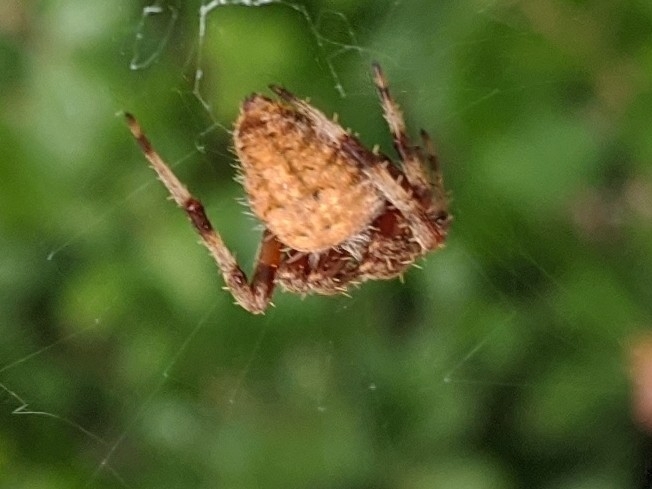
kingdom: Animalia
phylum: Arthropoda
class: Arachnida
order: Araneae
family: Araneidae
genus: Neoscona
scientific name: Neoscona crucifera
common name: Spotted orbweaver
